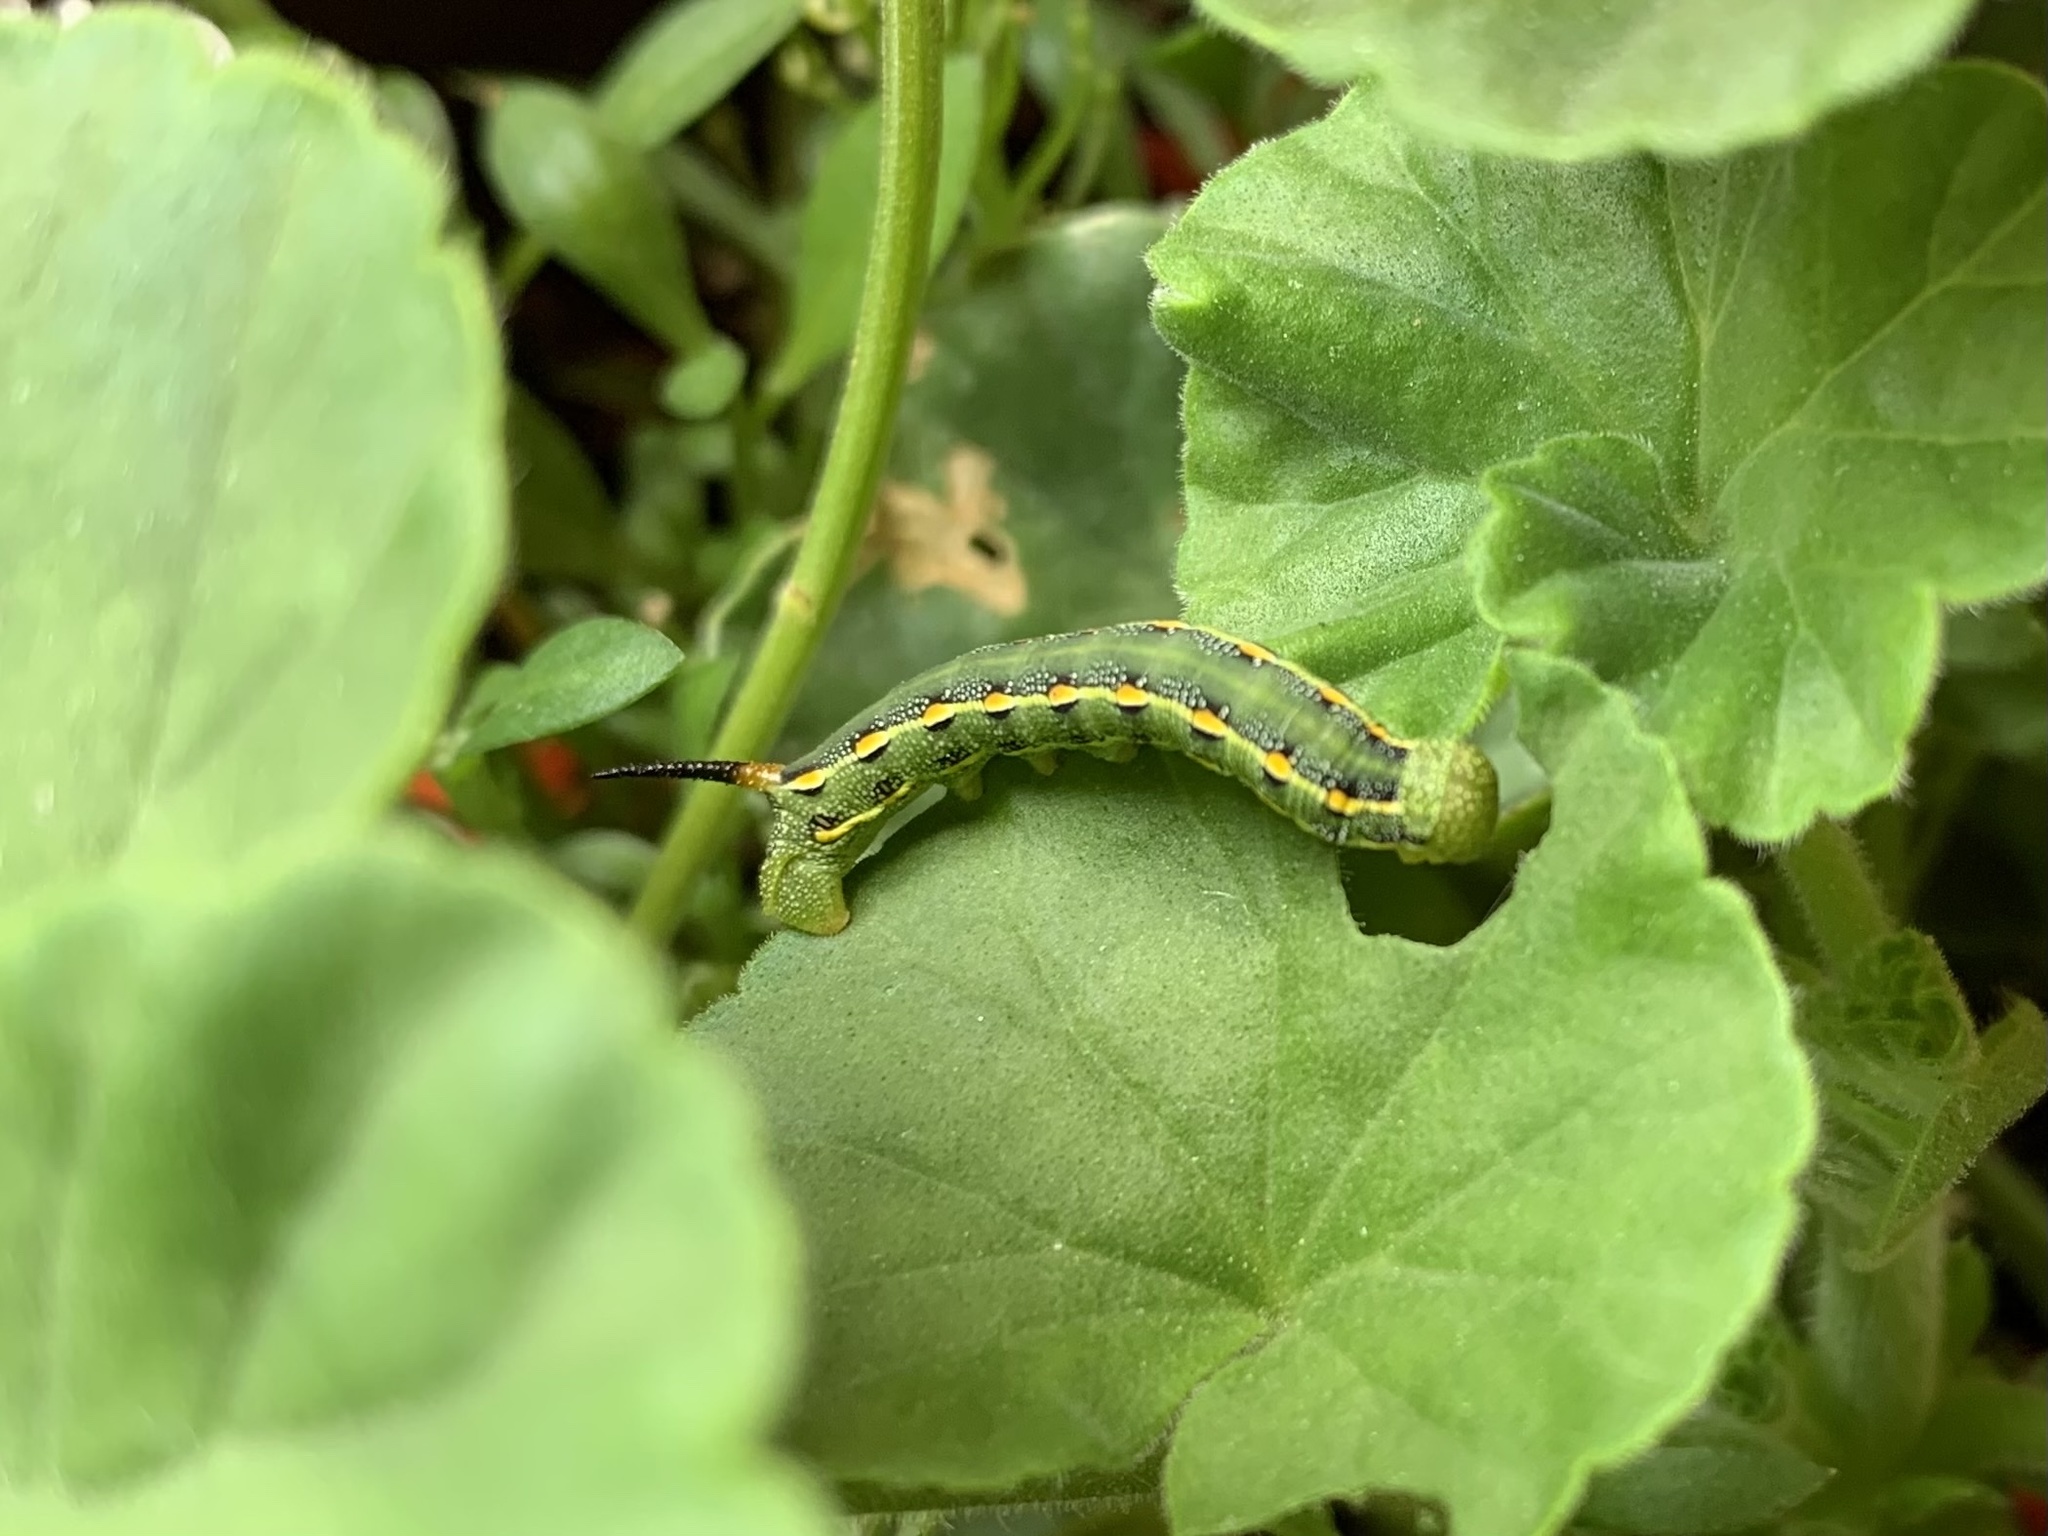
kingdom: Animalia
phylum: Arthropoda
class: Insecta
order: Lepidoptera
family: Sphingidae
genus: Hyles
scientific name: Hyles lineata
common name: White-lined sphinx
